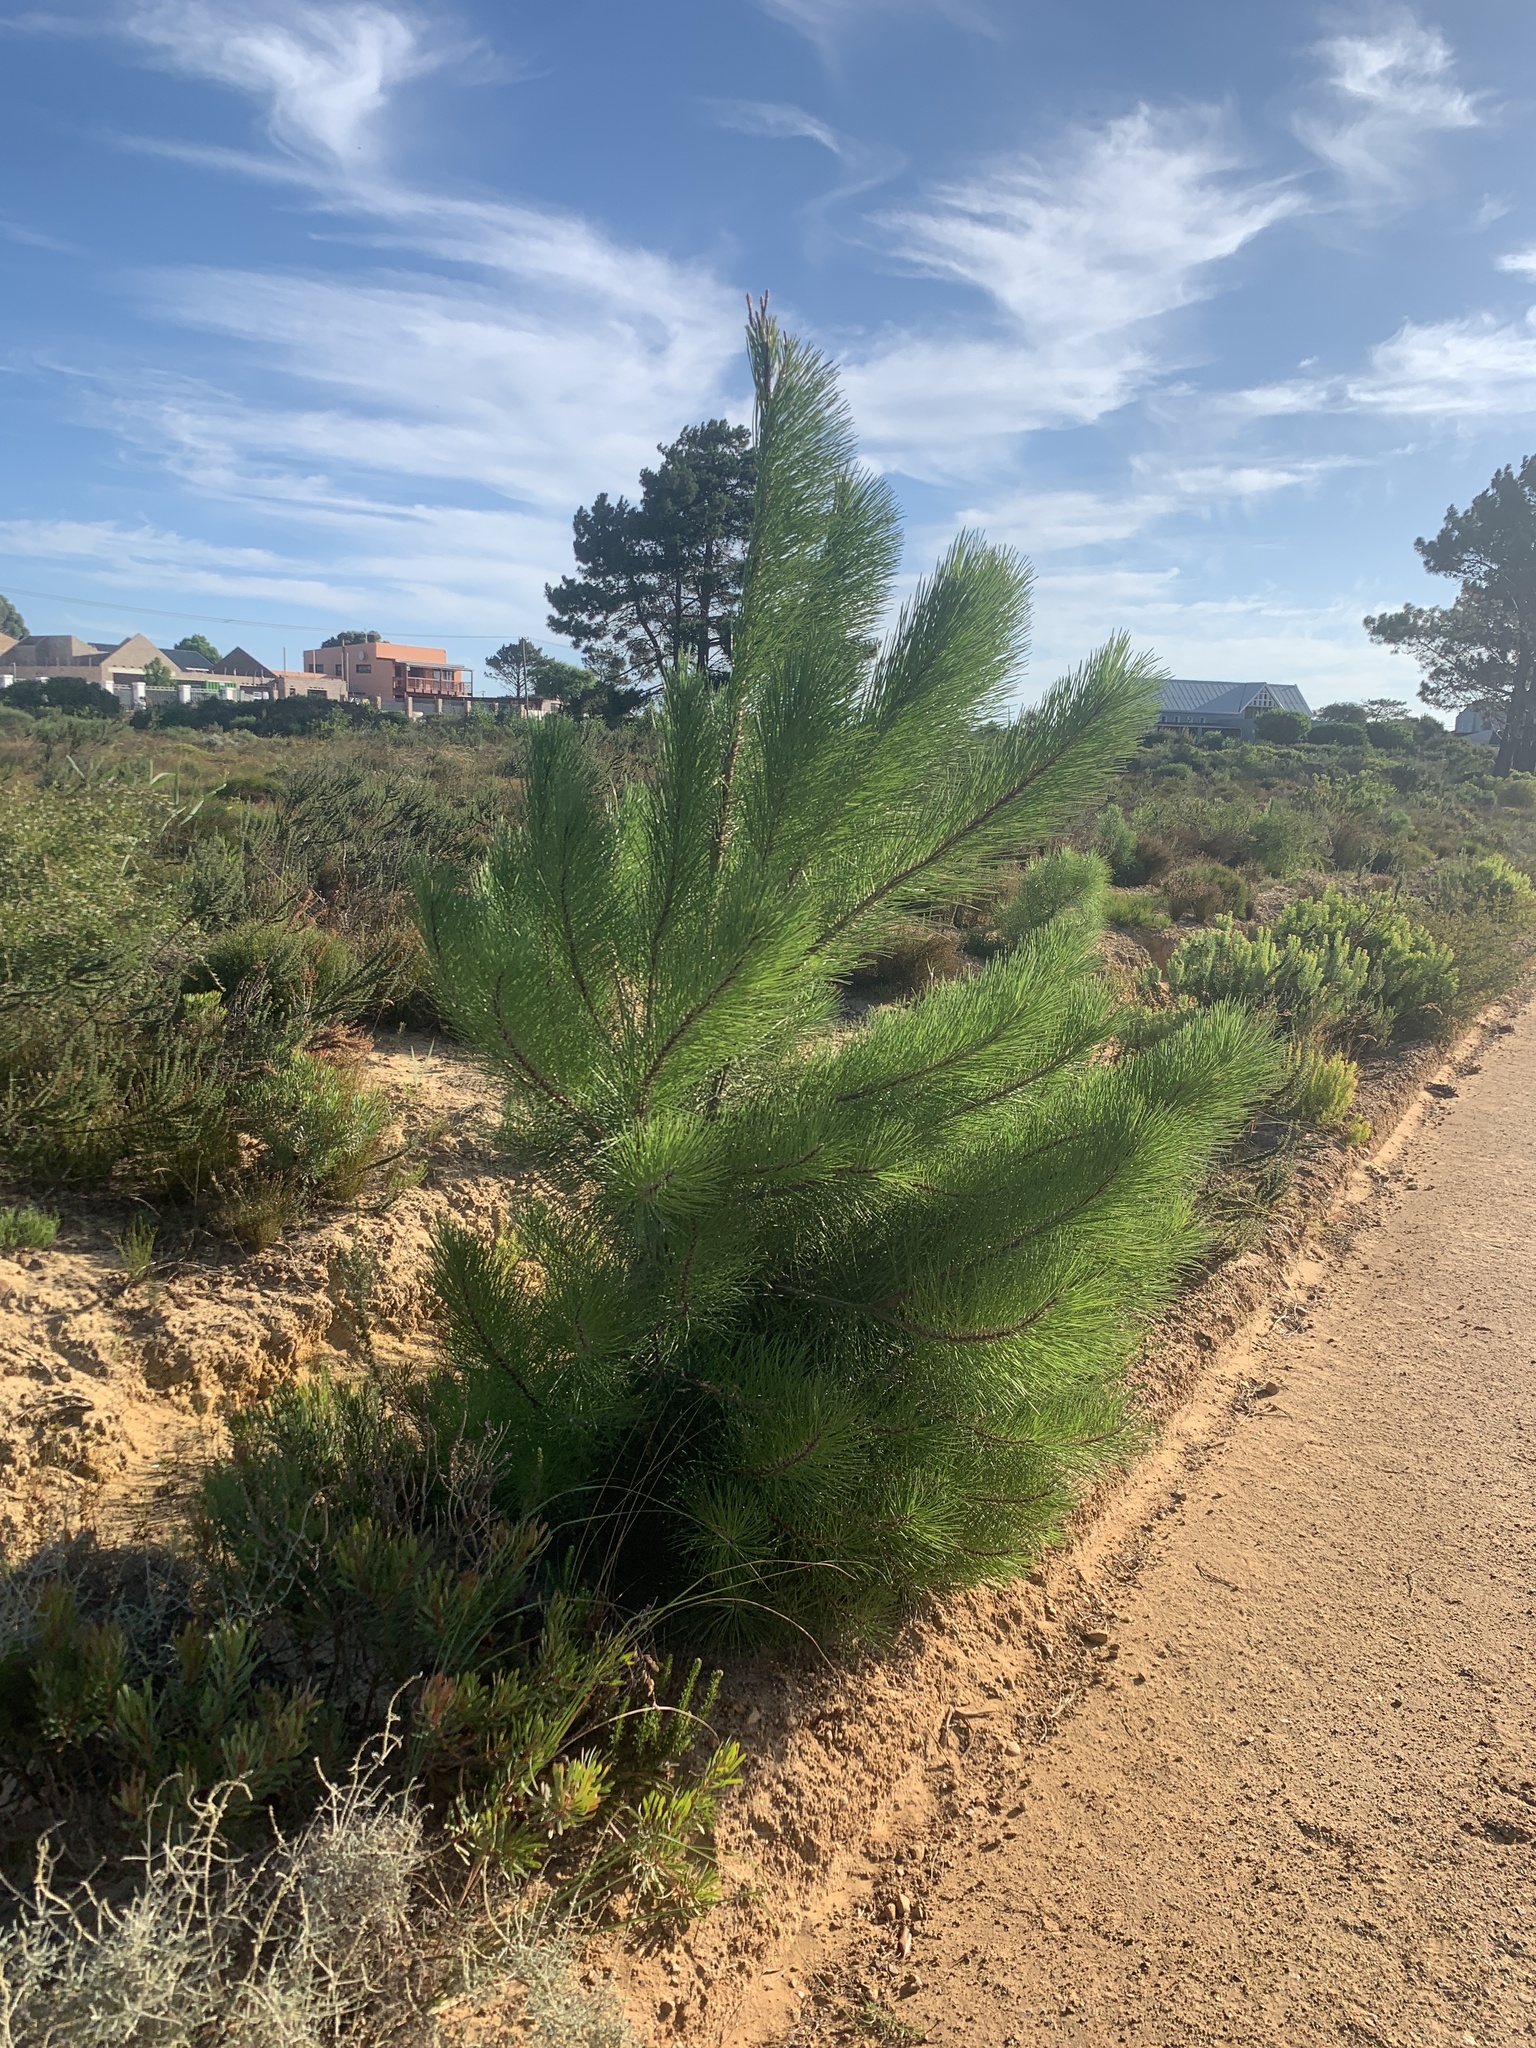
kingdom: Plantae
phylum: Tracheophyta
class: Pinopsida
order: Pinales
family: Pinaceae
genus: Pinus
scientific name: Pinus pinaster
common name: Maritime pine
